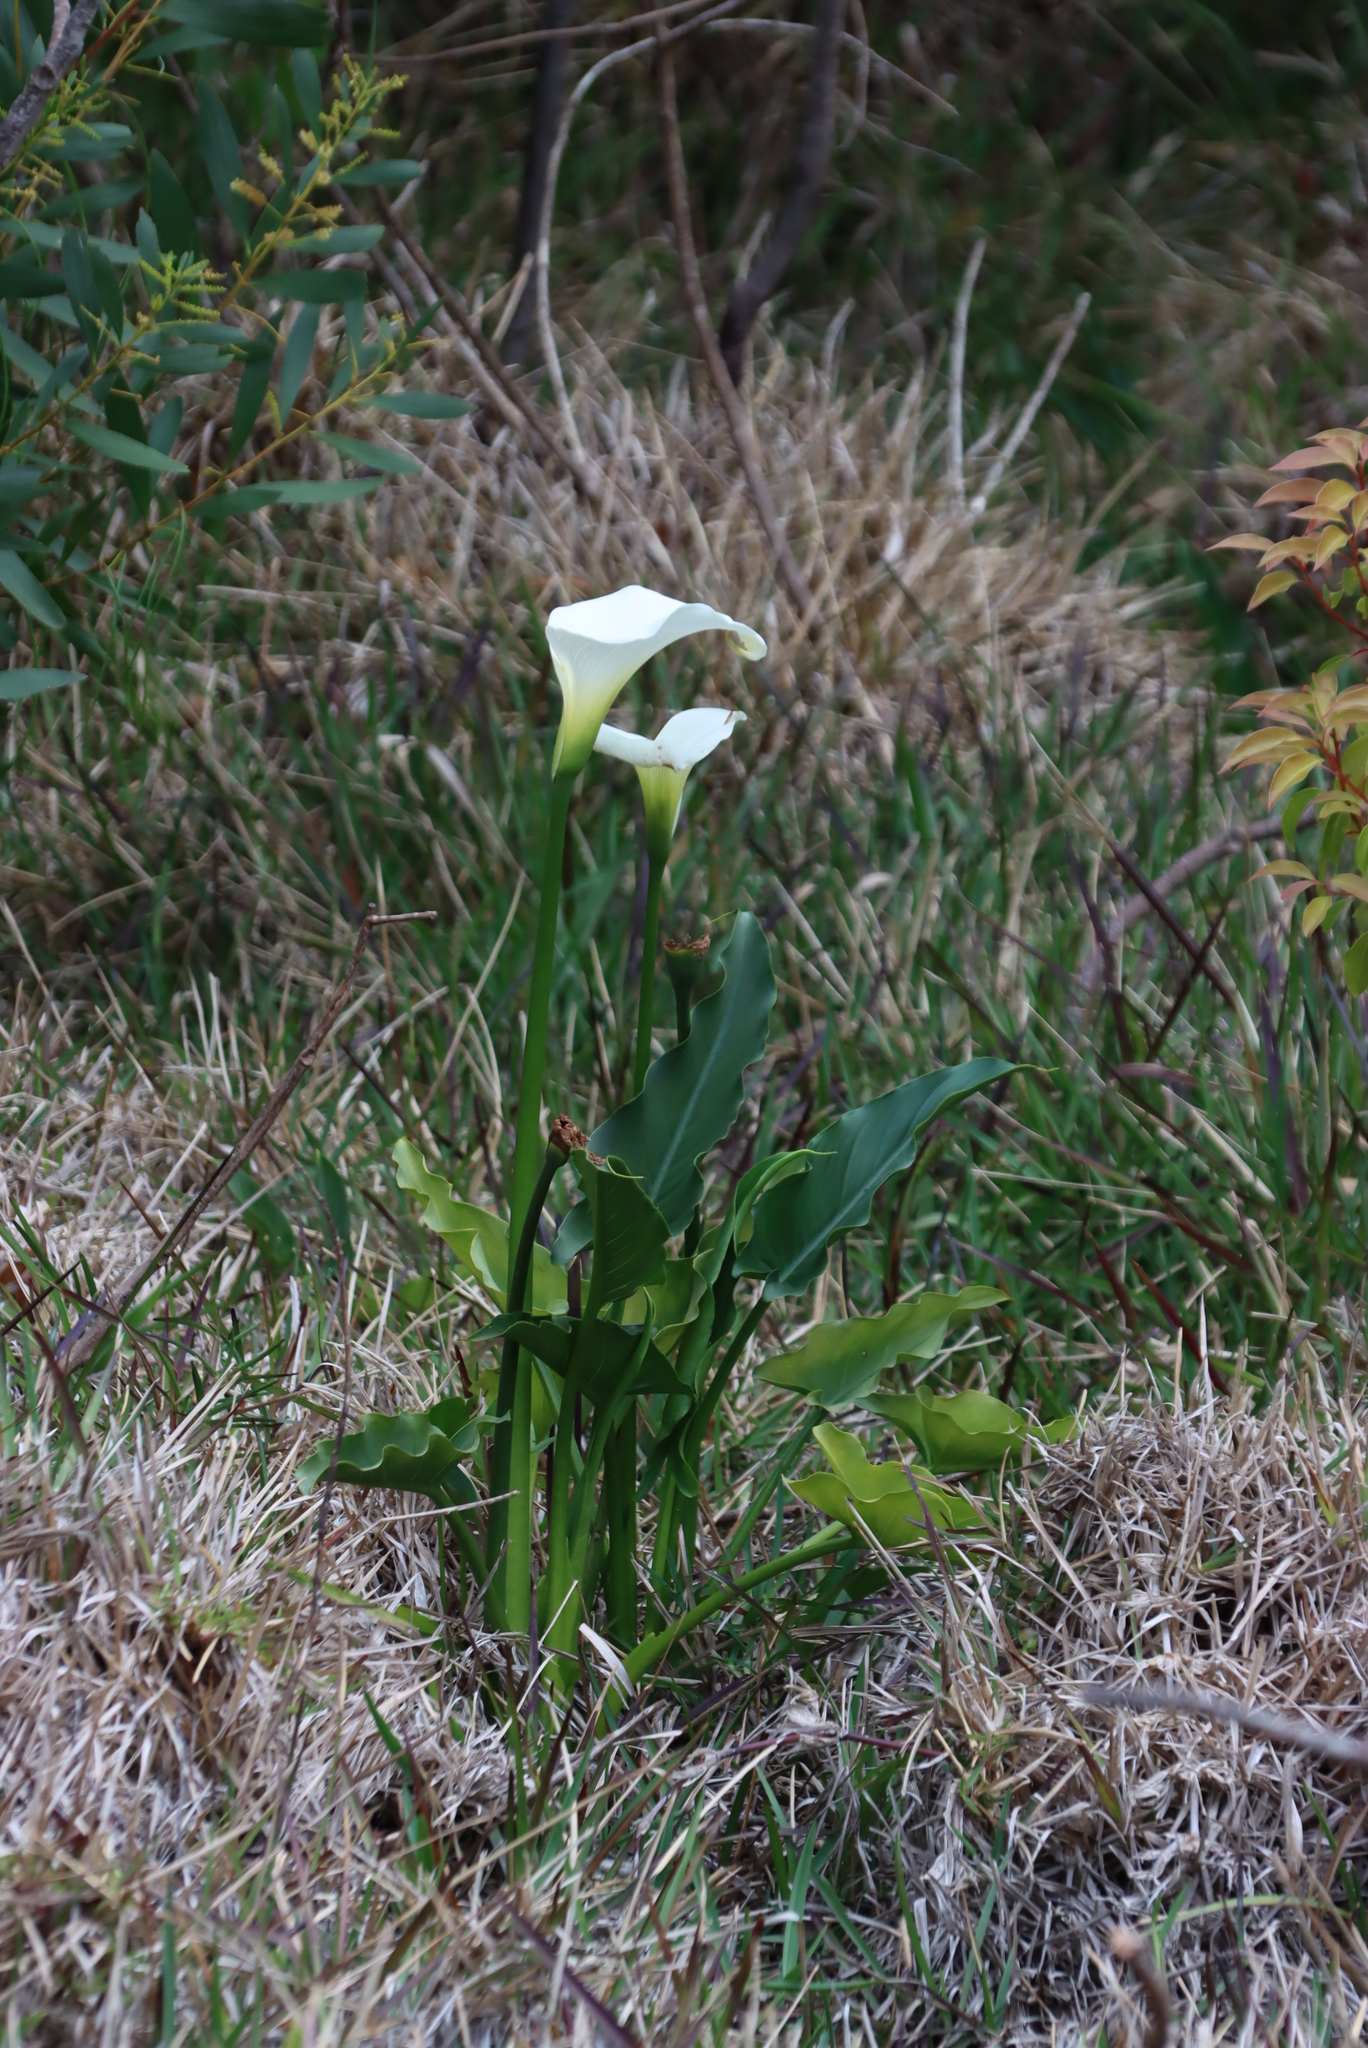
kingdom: Plantae
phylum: Tracheophyta
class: Liliopsida
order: Alismatales
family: Araceae
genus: Zantedeschia
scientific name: Zantedeschia aethiopica
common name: Altar-lily
